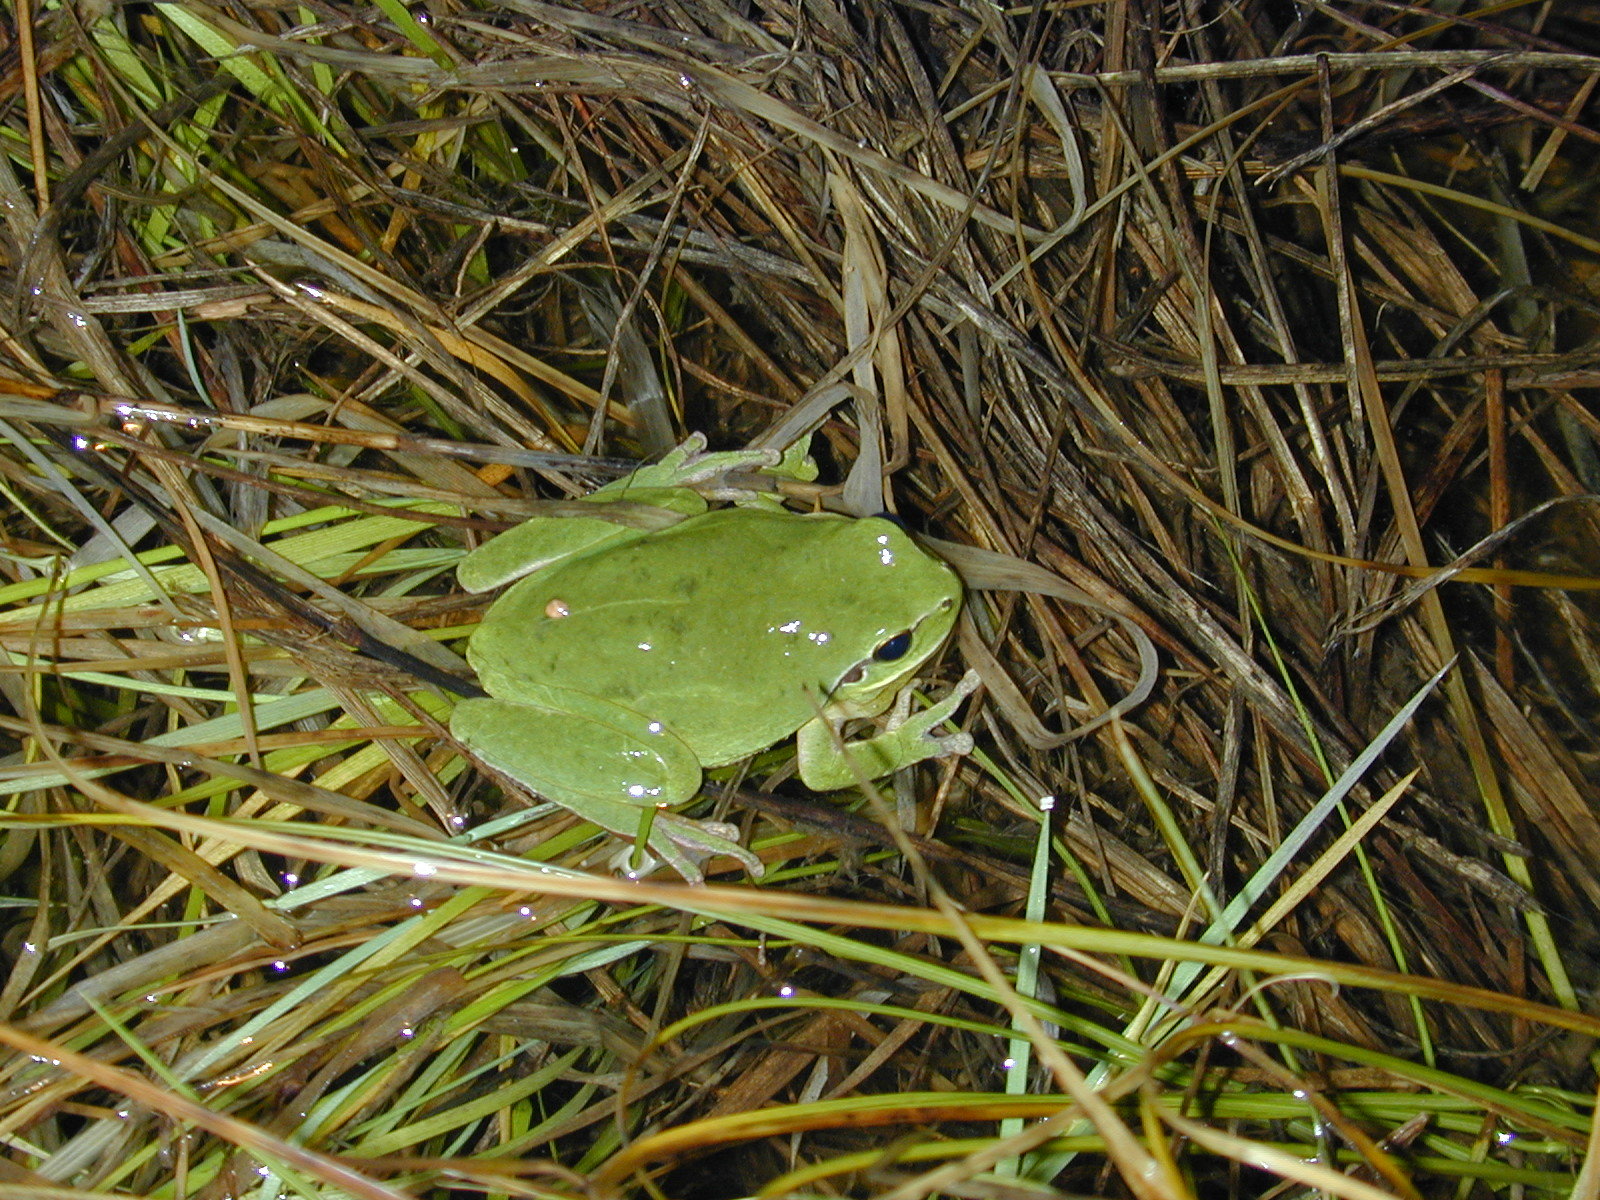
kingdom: Animalia
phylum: Chordata
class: Amphibia
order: Anura
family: Hylidae
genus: Hyla
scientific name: Hyla meridionalis
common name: Stripeless tree frog
